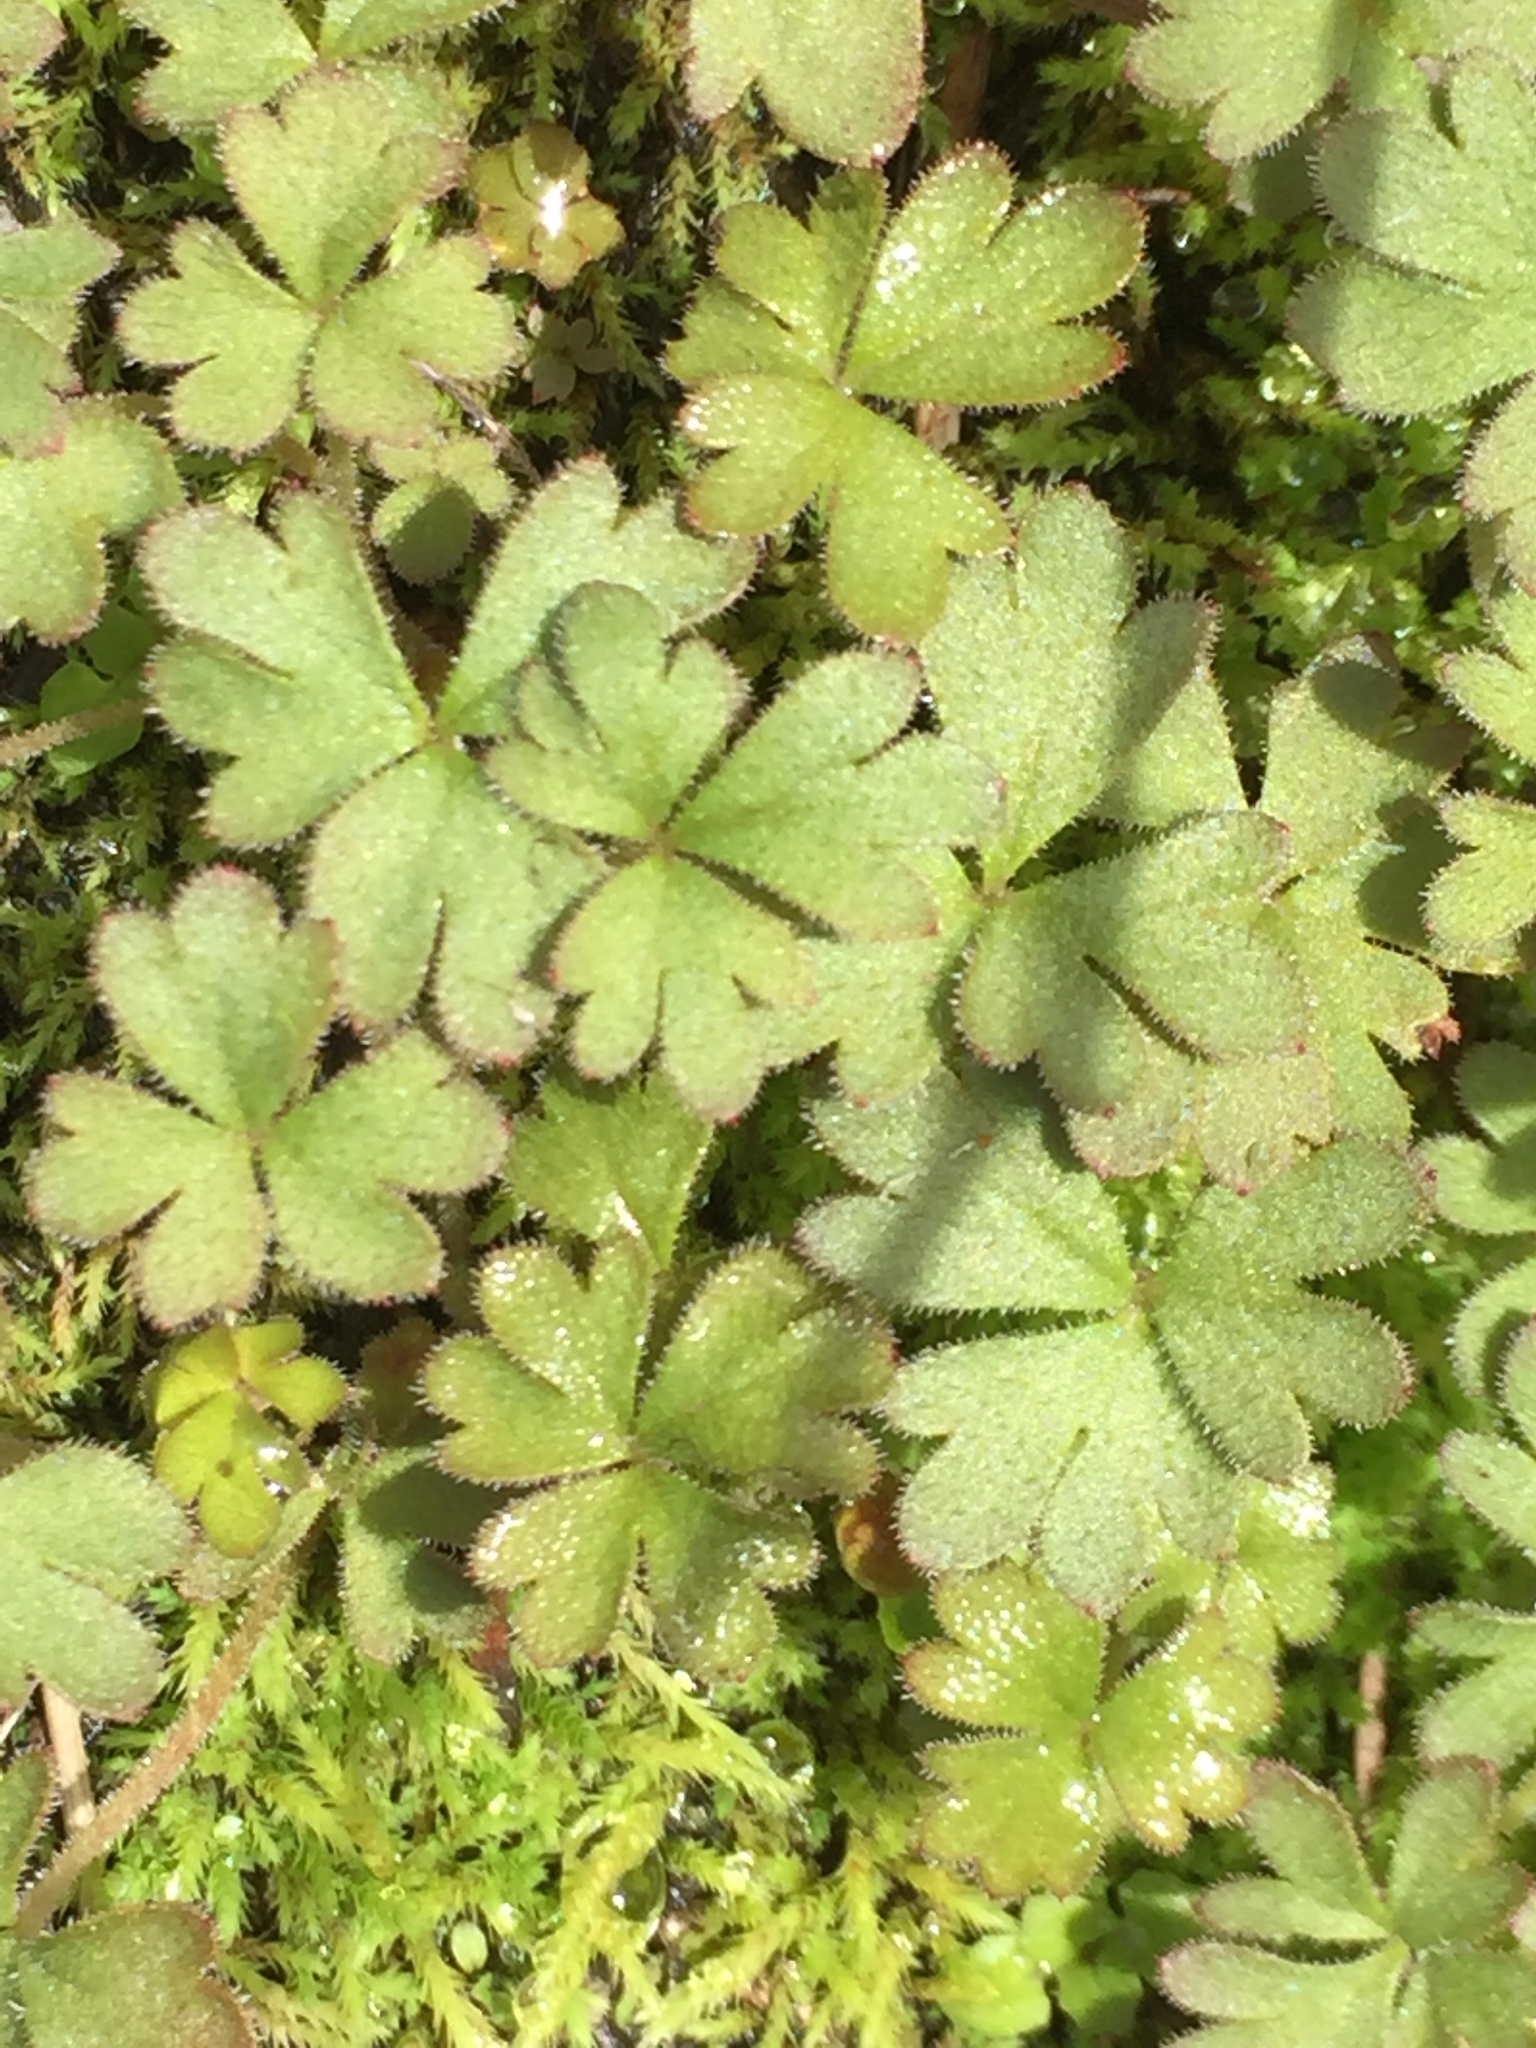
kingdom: Plantae
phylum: Tracheophyta
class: Magnoliopsida
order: Saxifragales
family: Saxifragaceae
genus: Lithophragma
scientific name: Lithophragma parviflorum
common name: Small-flowered fringe-cup
